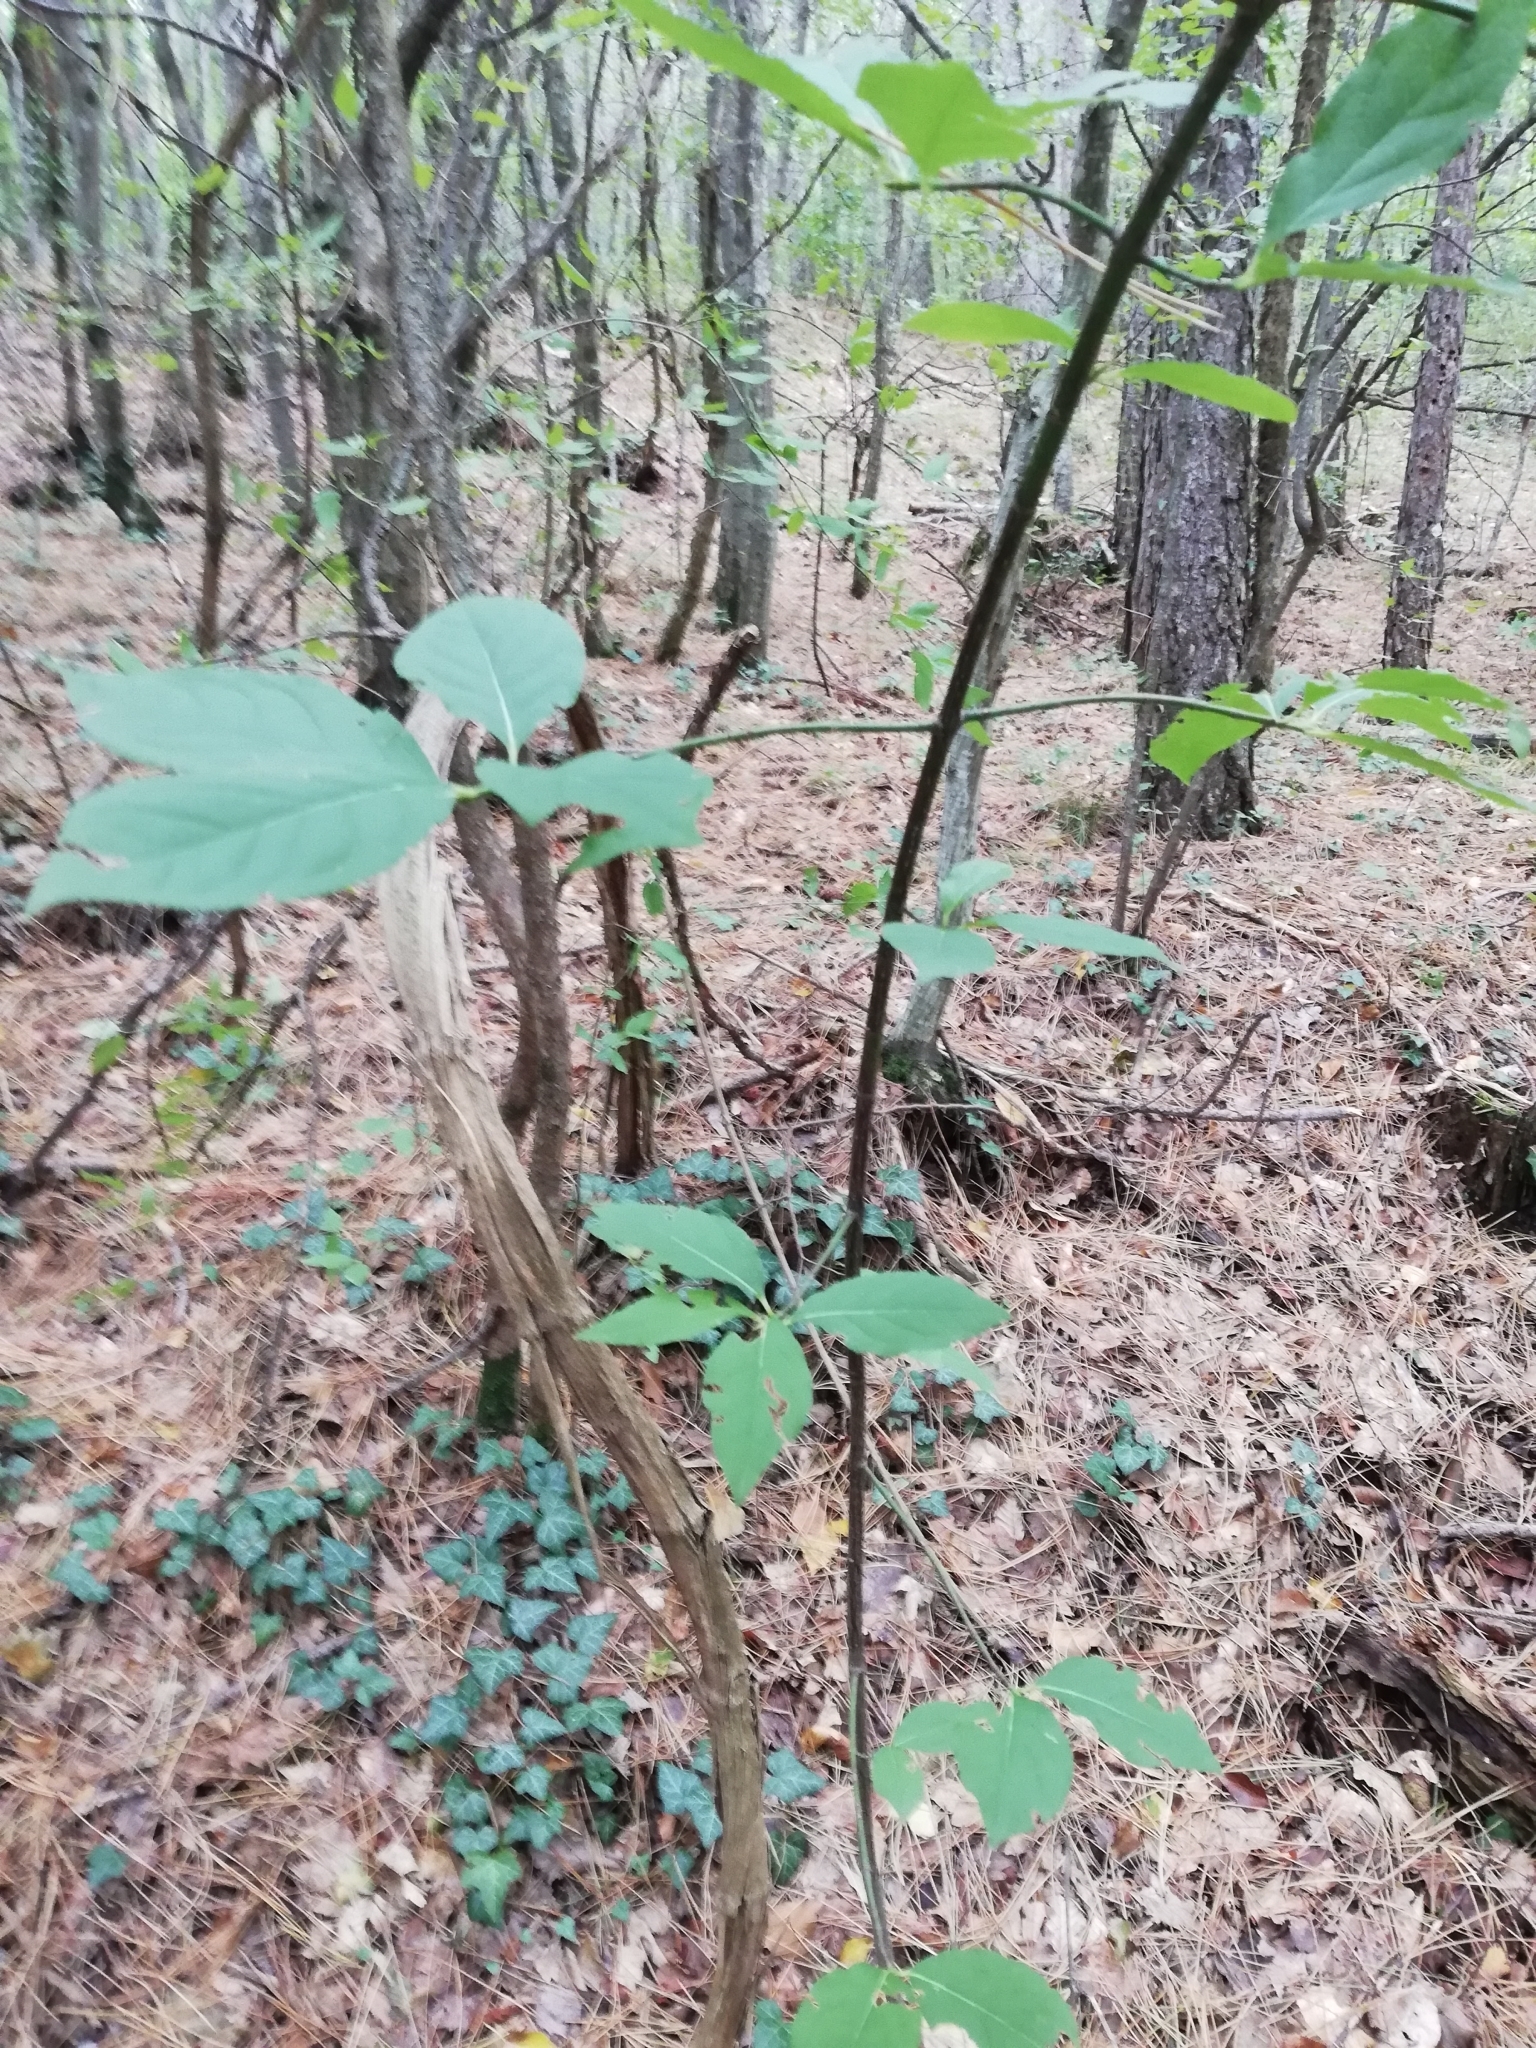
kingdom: Plantae
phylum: Tracheophyta
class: Magnoliopsida
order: Celastrales
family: Celastraceae
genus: Euonymus
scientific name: Euonymus latifolius
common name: Large-leaved spindle
